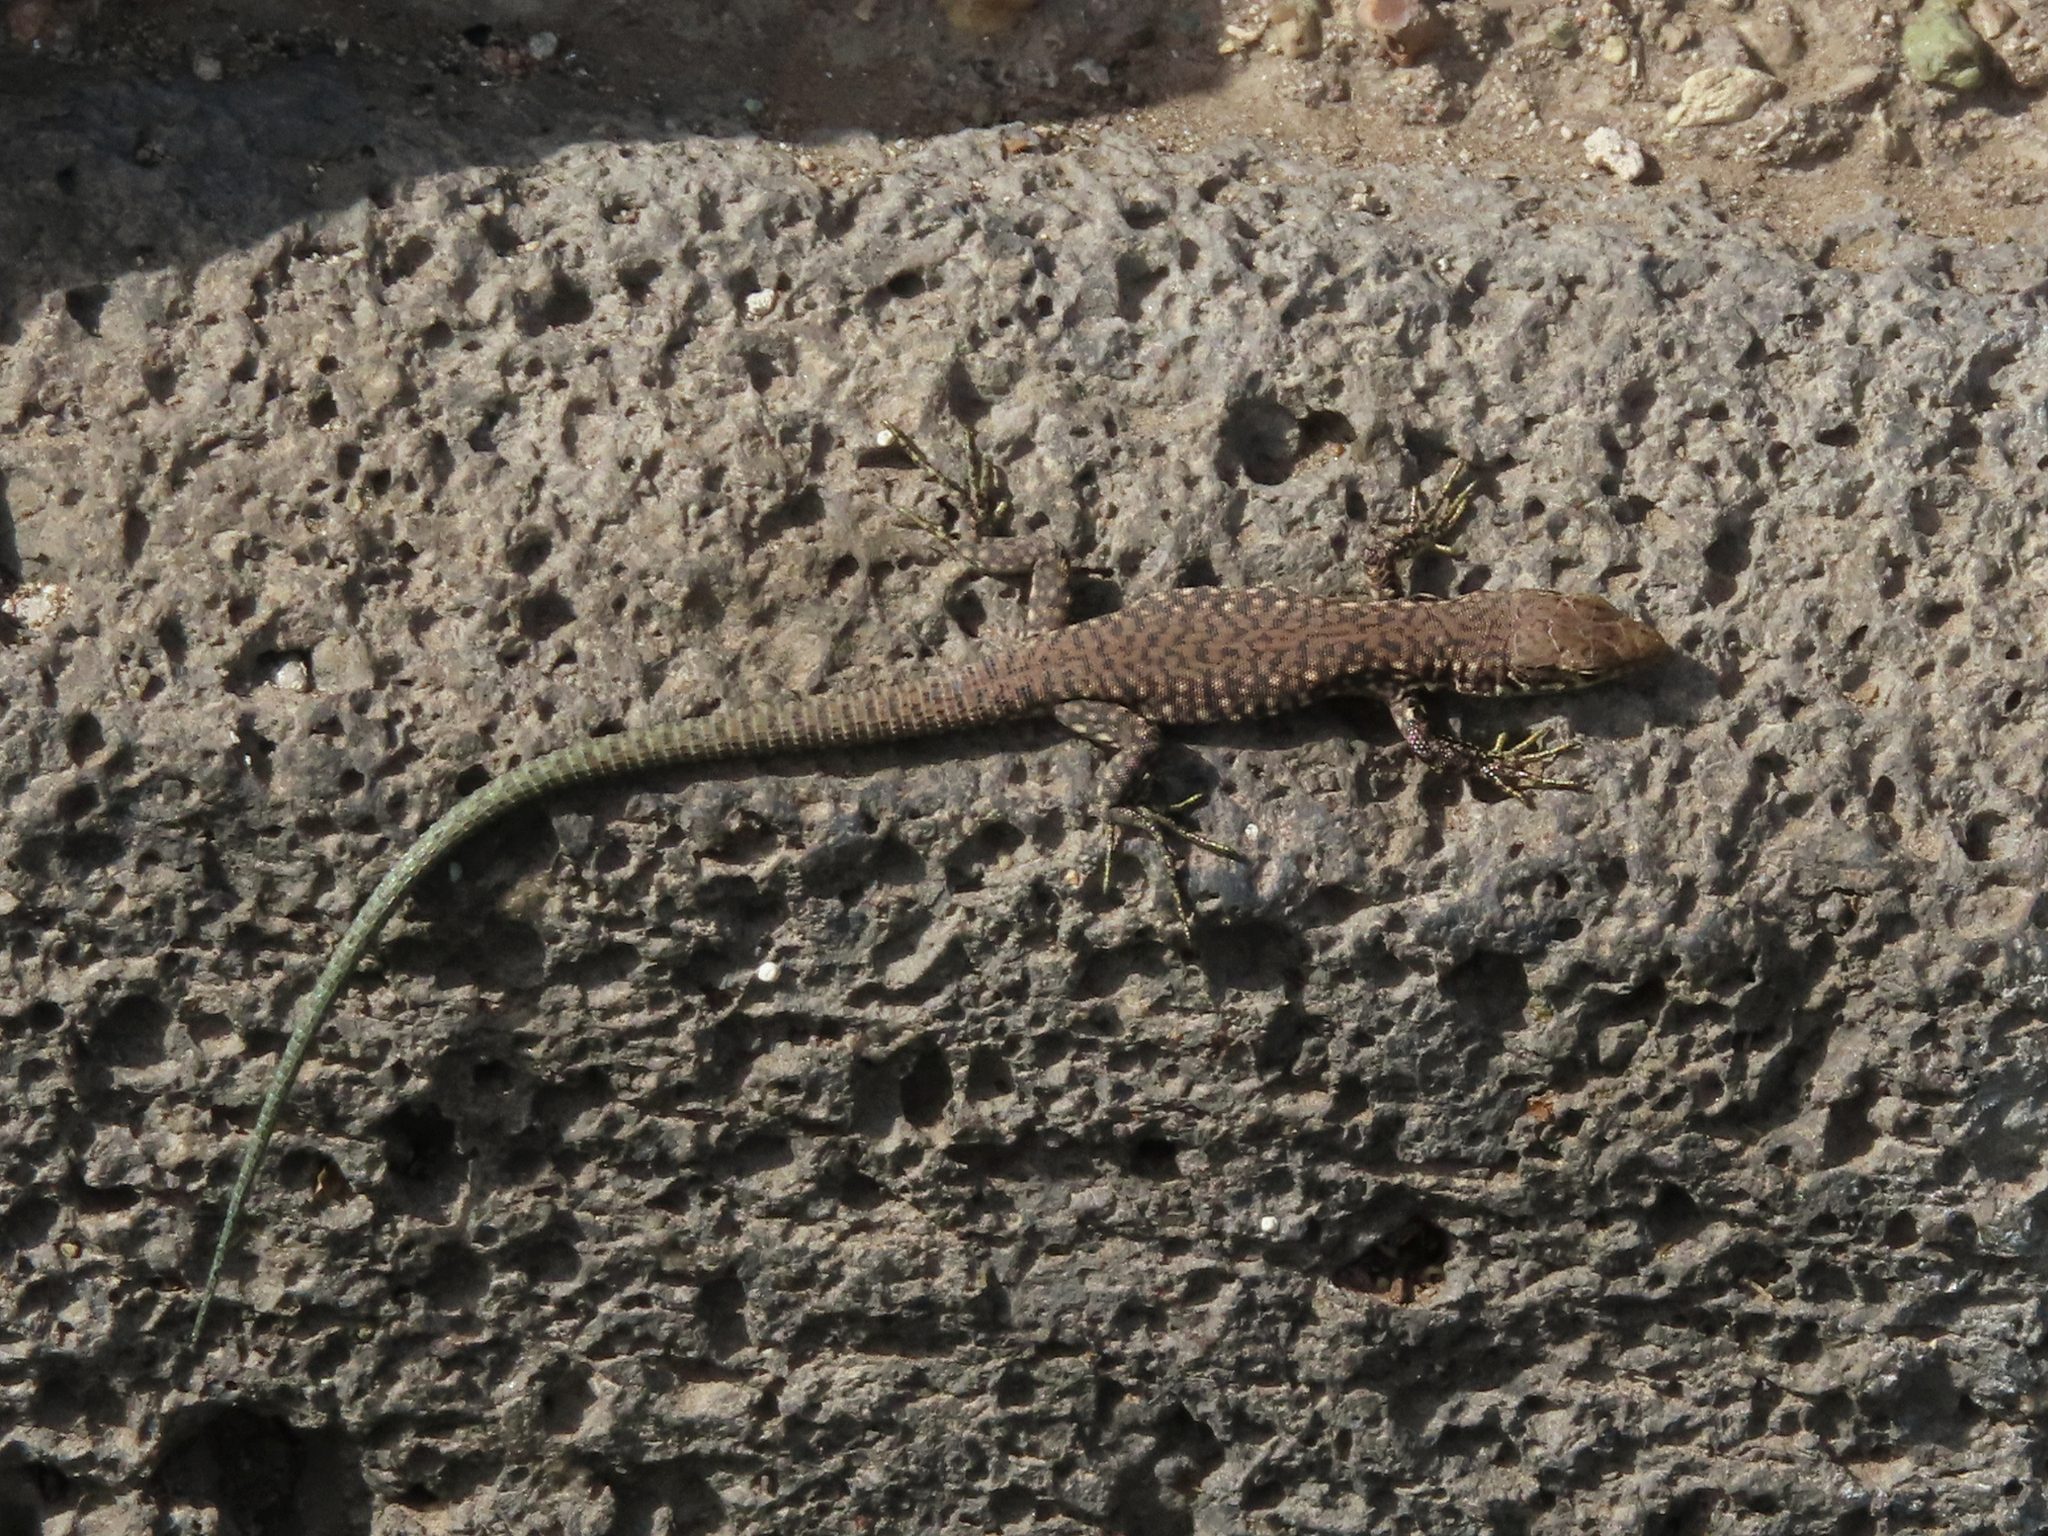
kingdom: Animalia
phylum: Chordata
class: Squamata
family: Lacertidae
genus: Darevskia
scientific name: Darevskia
